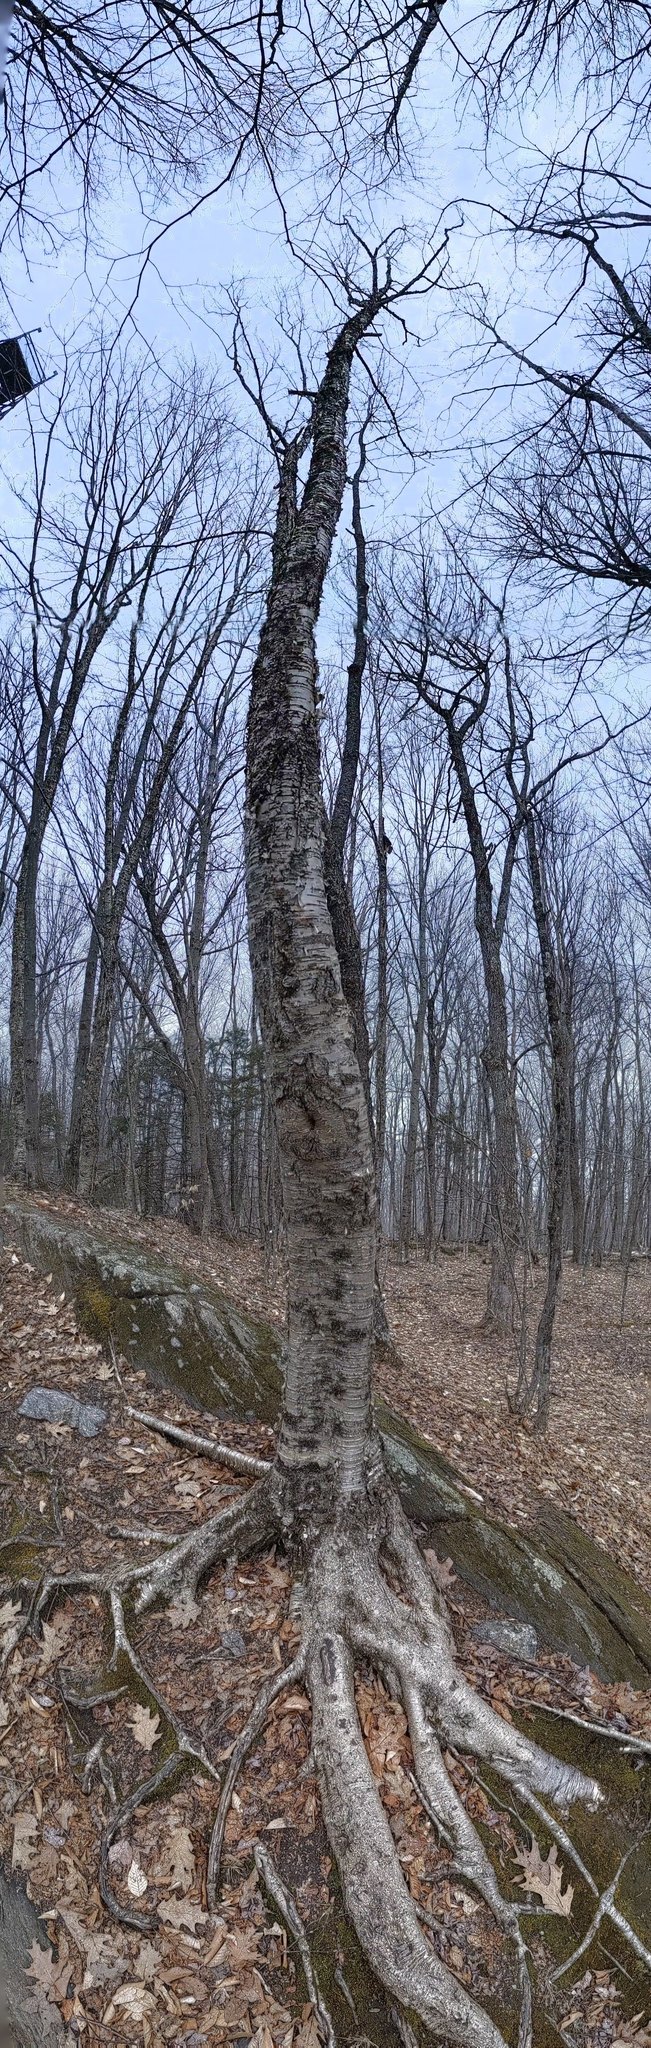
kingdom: Plantae
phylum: Tracheophyta
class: Magnoliopsida
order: Fagales
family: Betulaceae
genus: Betula
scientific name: Betula alleghaniensis
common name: Yellow birch
